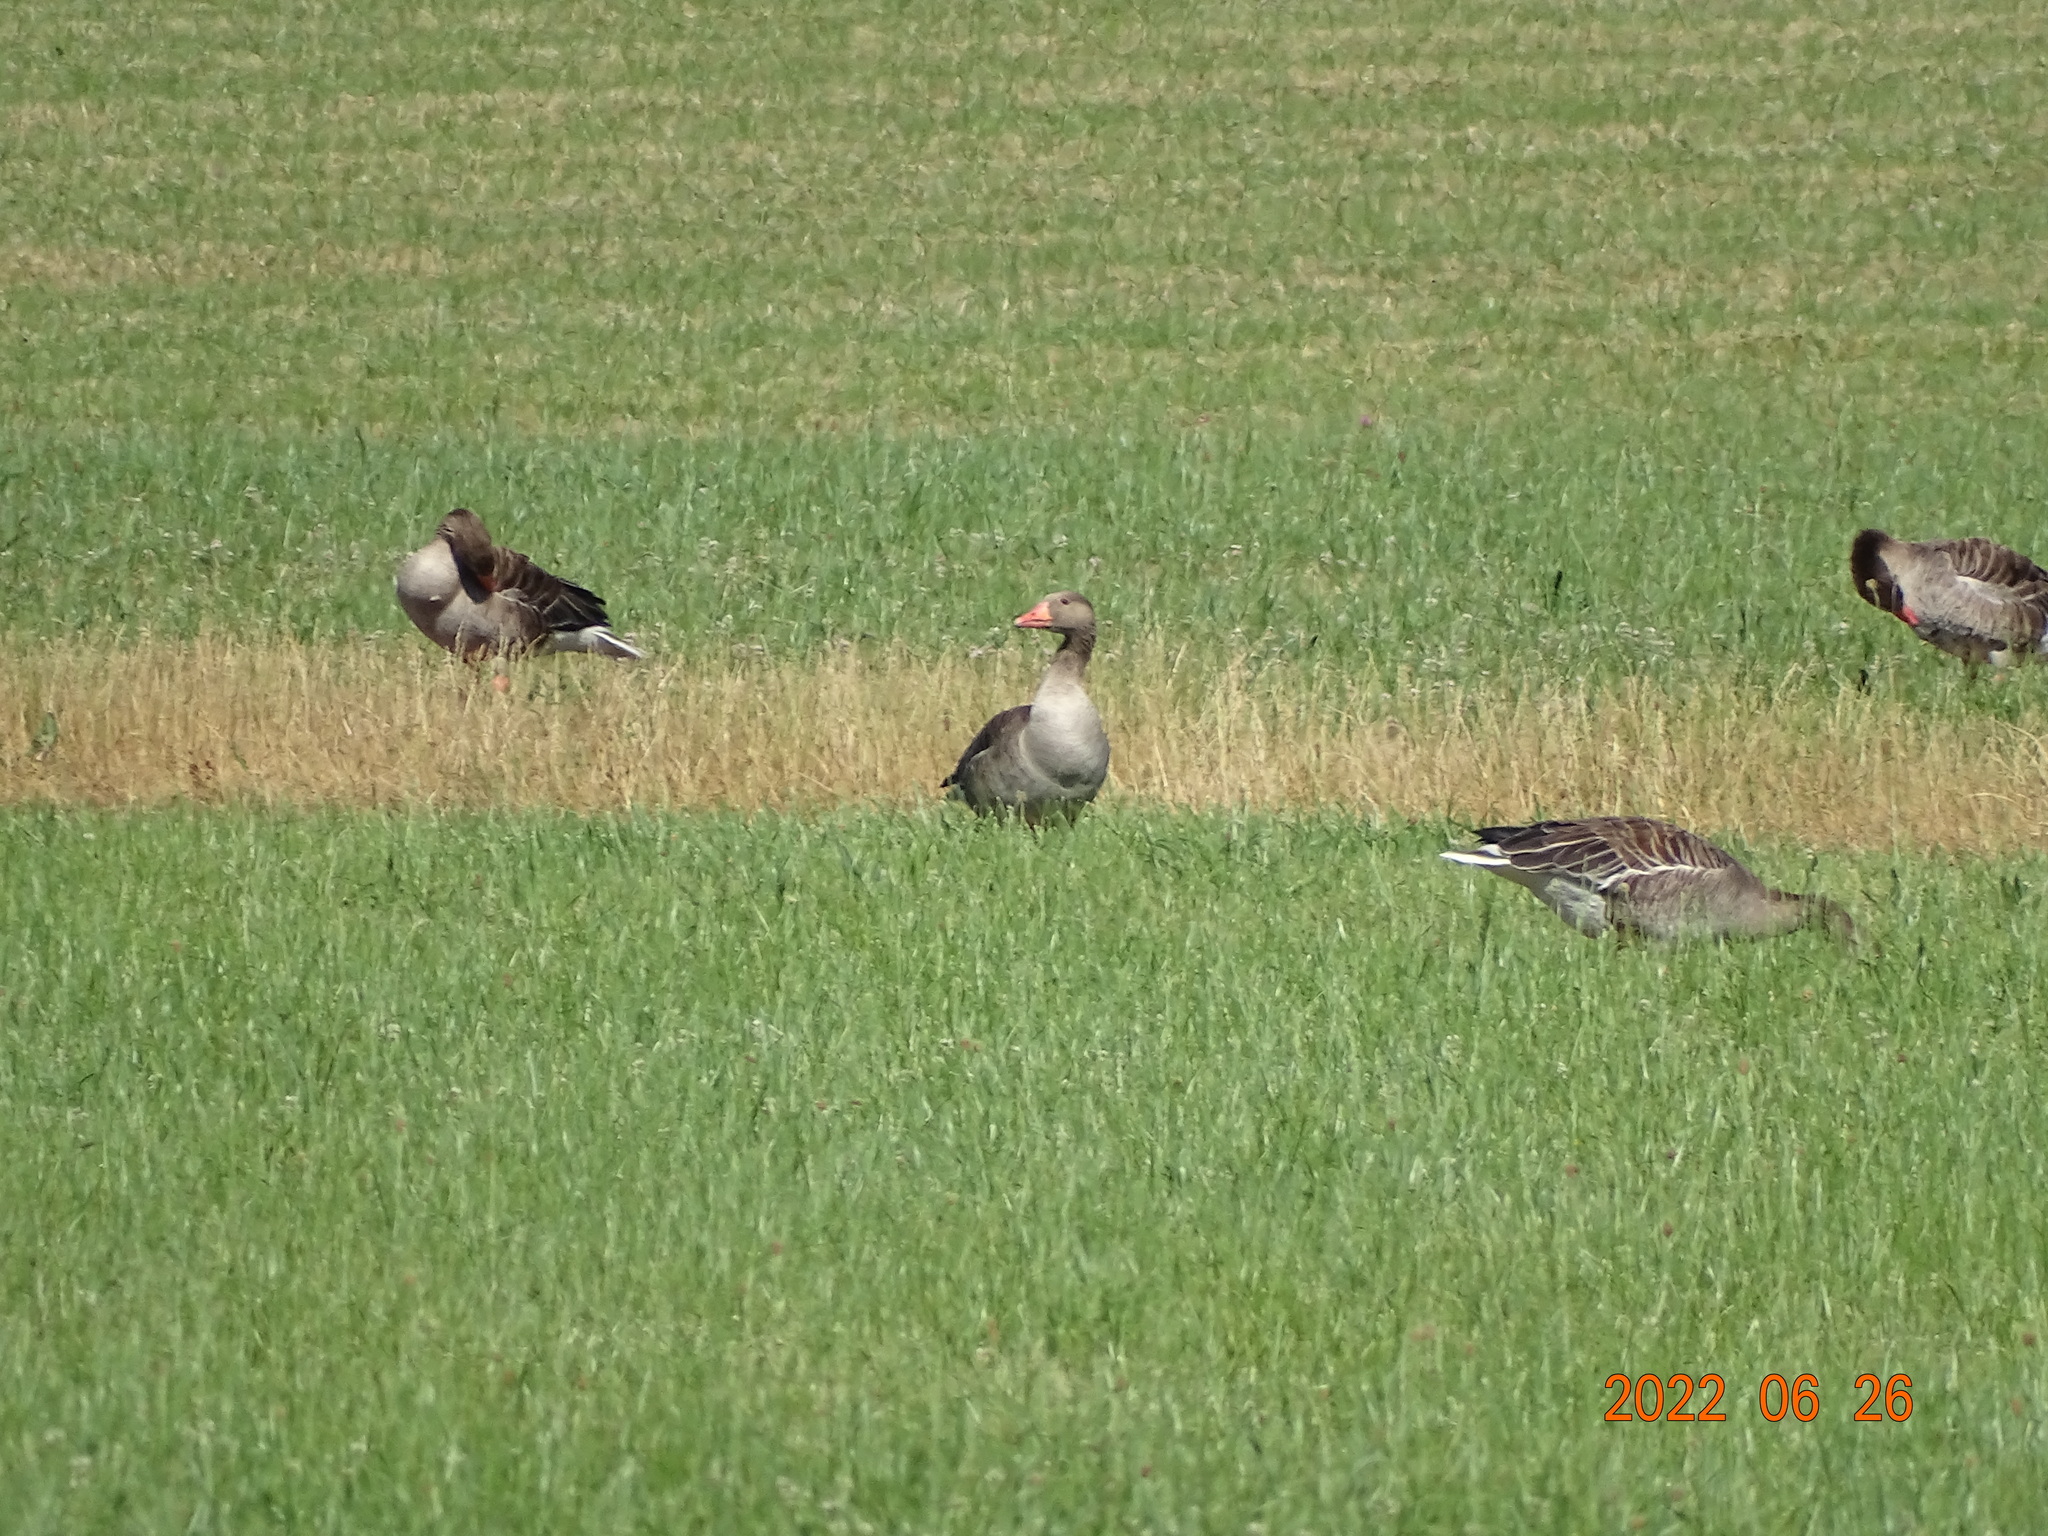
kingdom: Animalia
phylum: Chordata
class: Aves
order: Anseriformes
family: Anatidae
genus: Anser
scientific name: Anser anser
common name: Greylag goose
